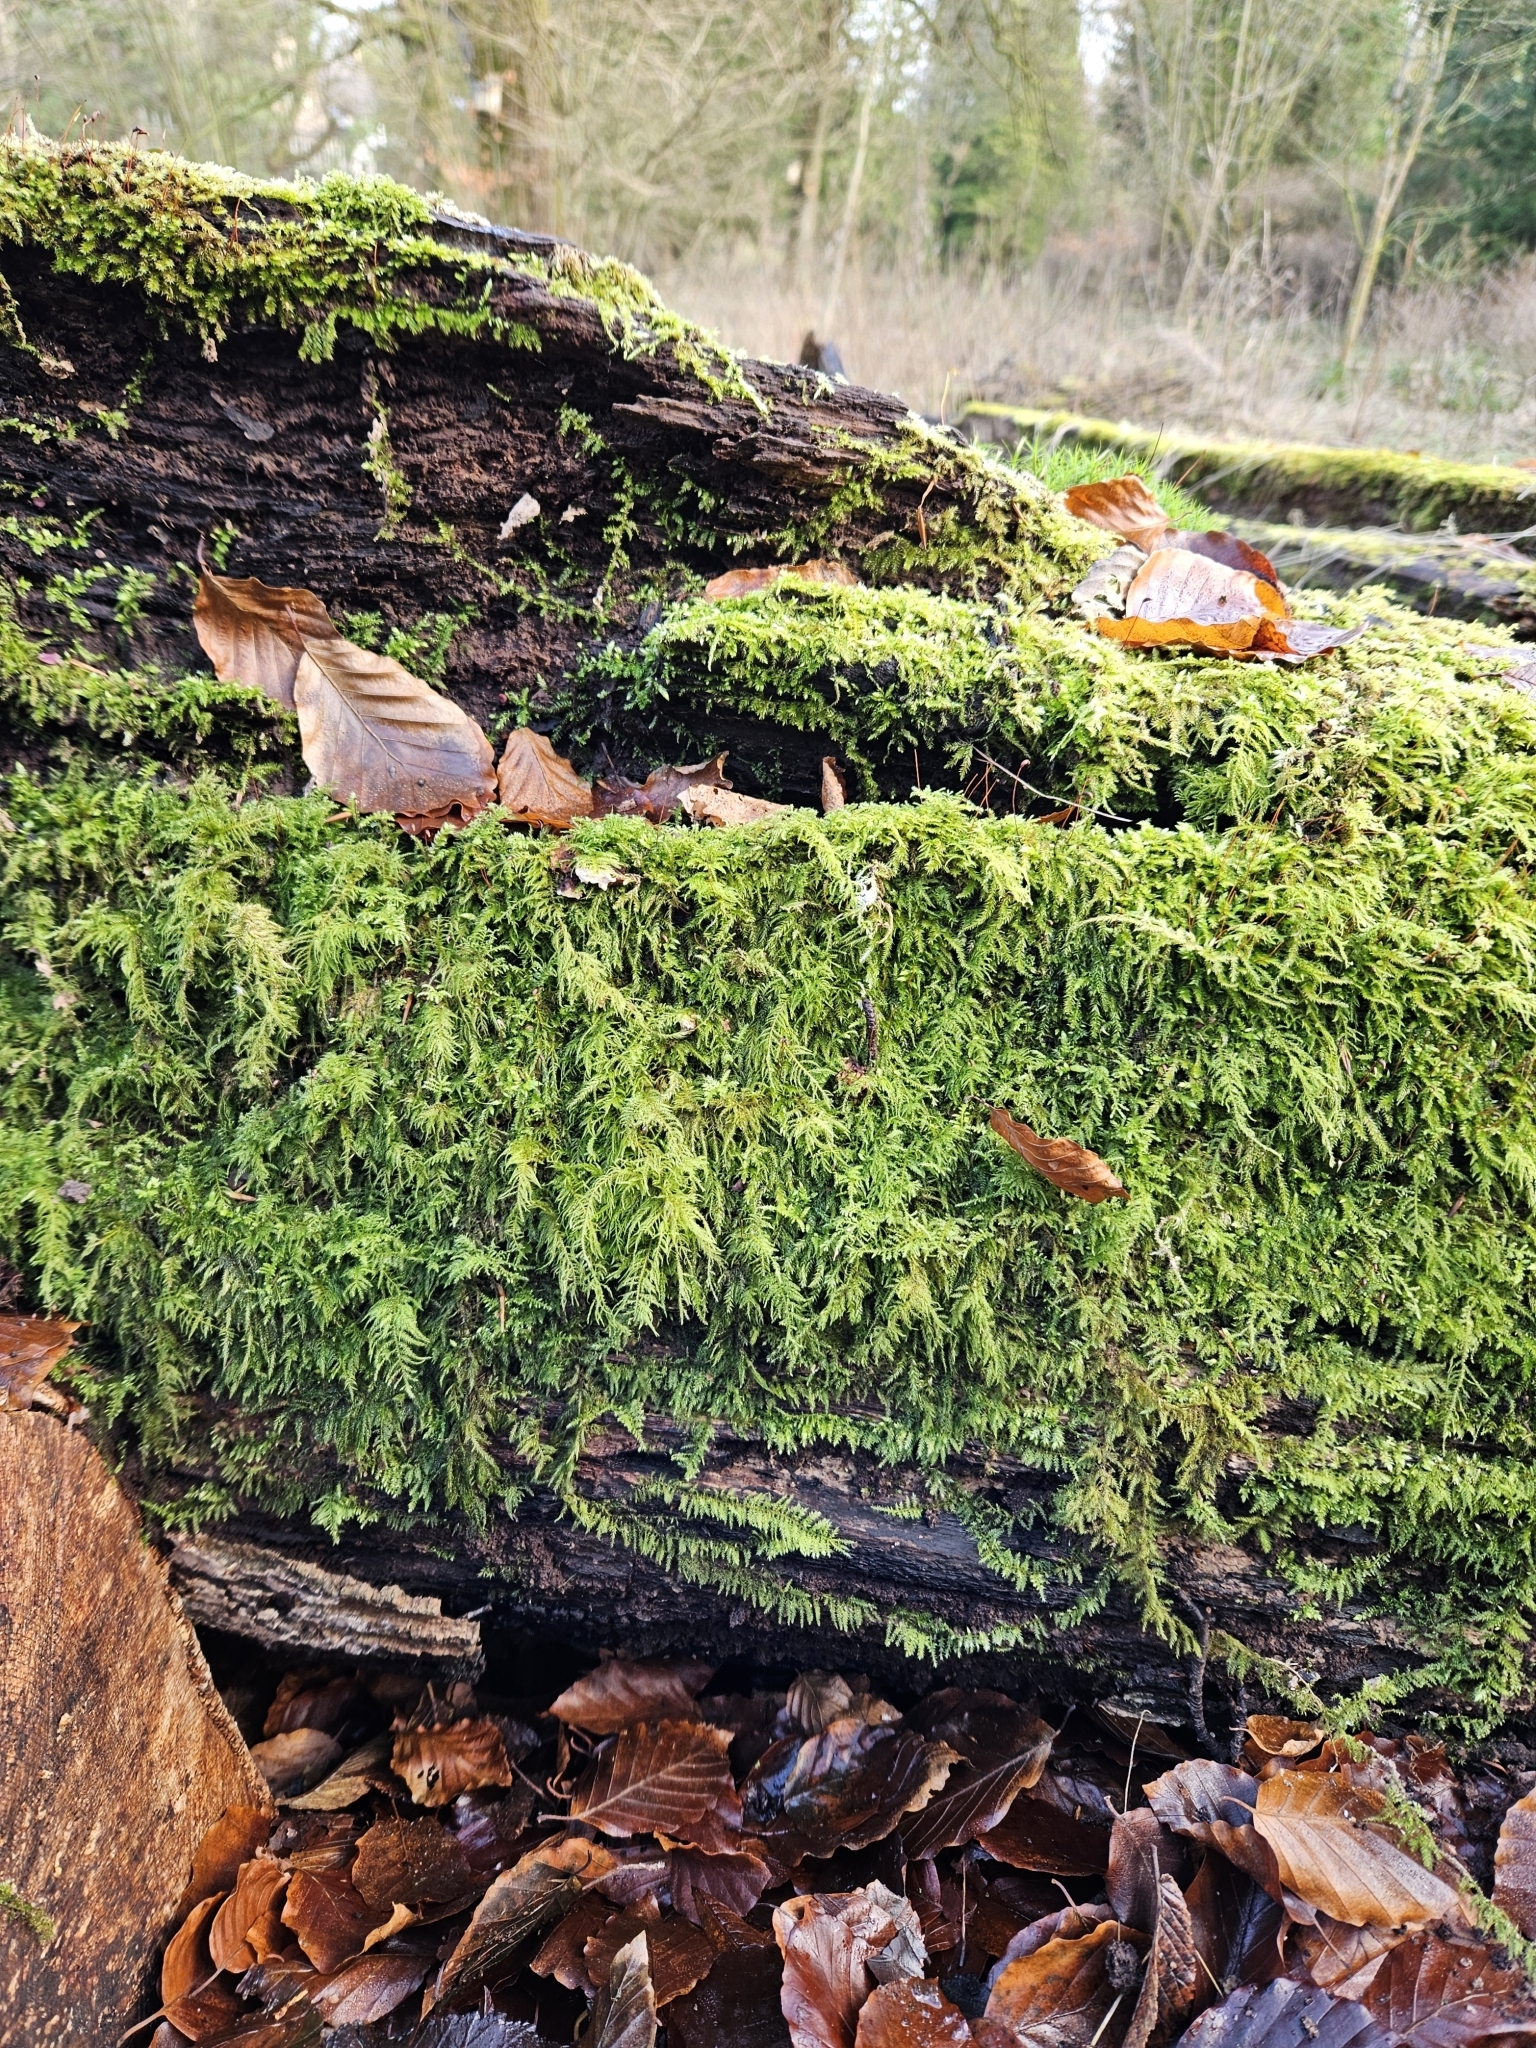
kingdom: Plantae
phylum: Bryophyta
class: Bryopsida
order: Hypnales
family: Brachytheciaceae
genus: Kindbergia
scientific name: Kindbergia praelonga
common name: Slender beaked moss
